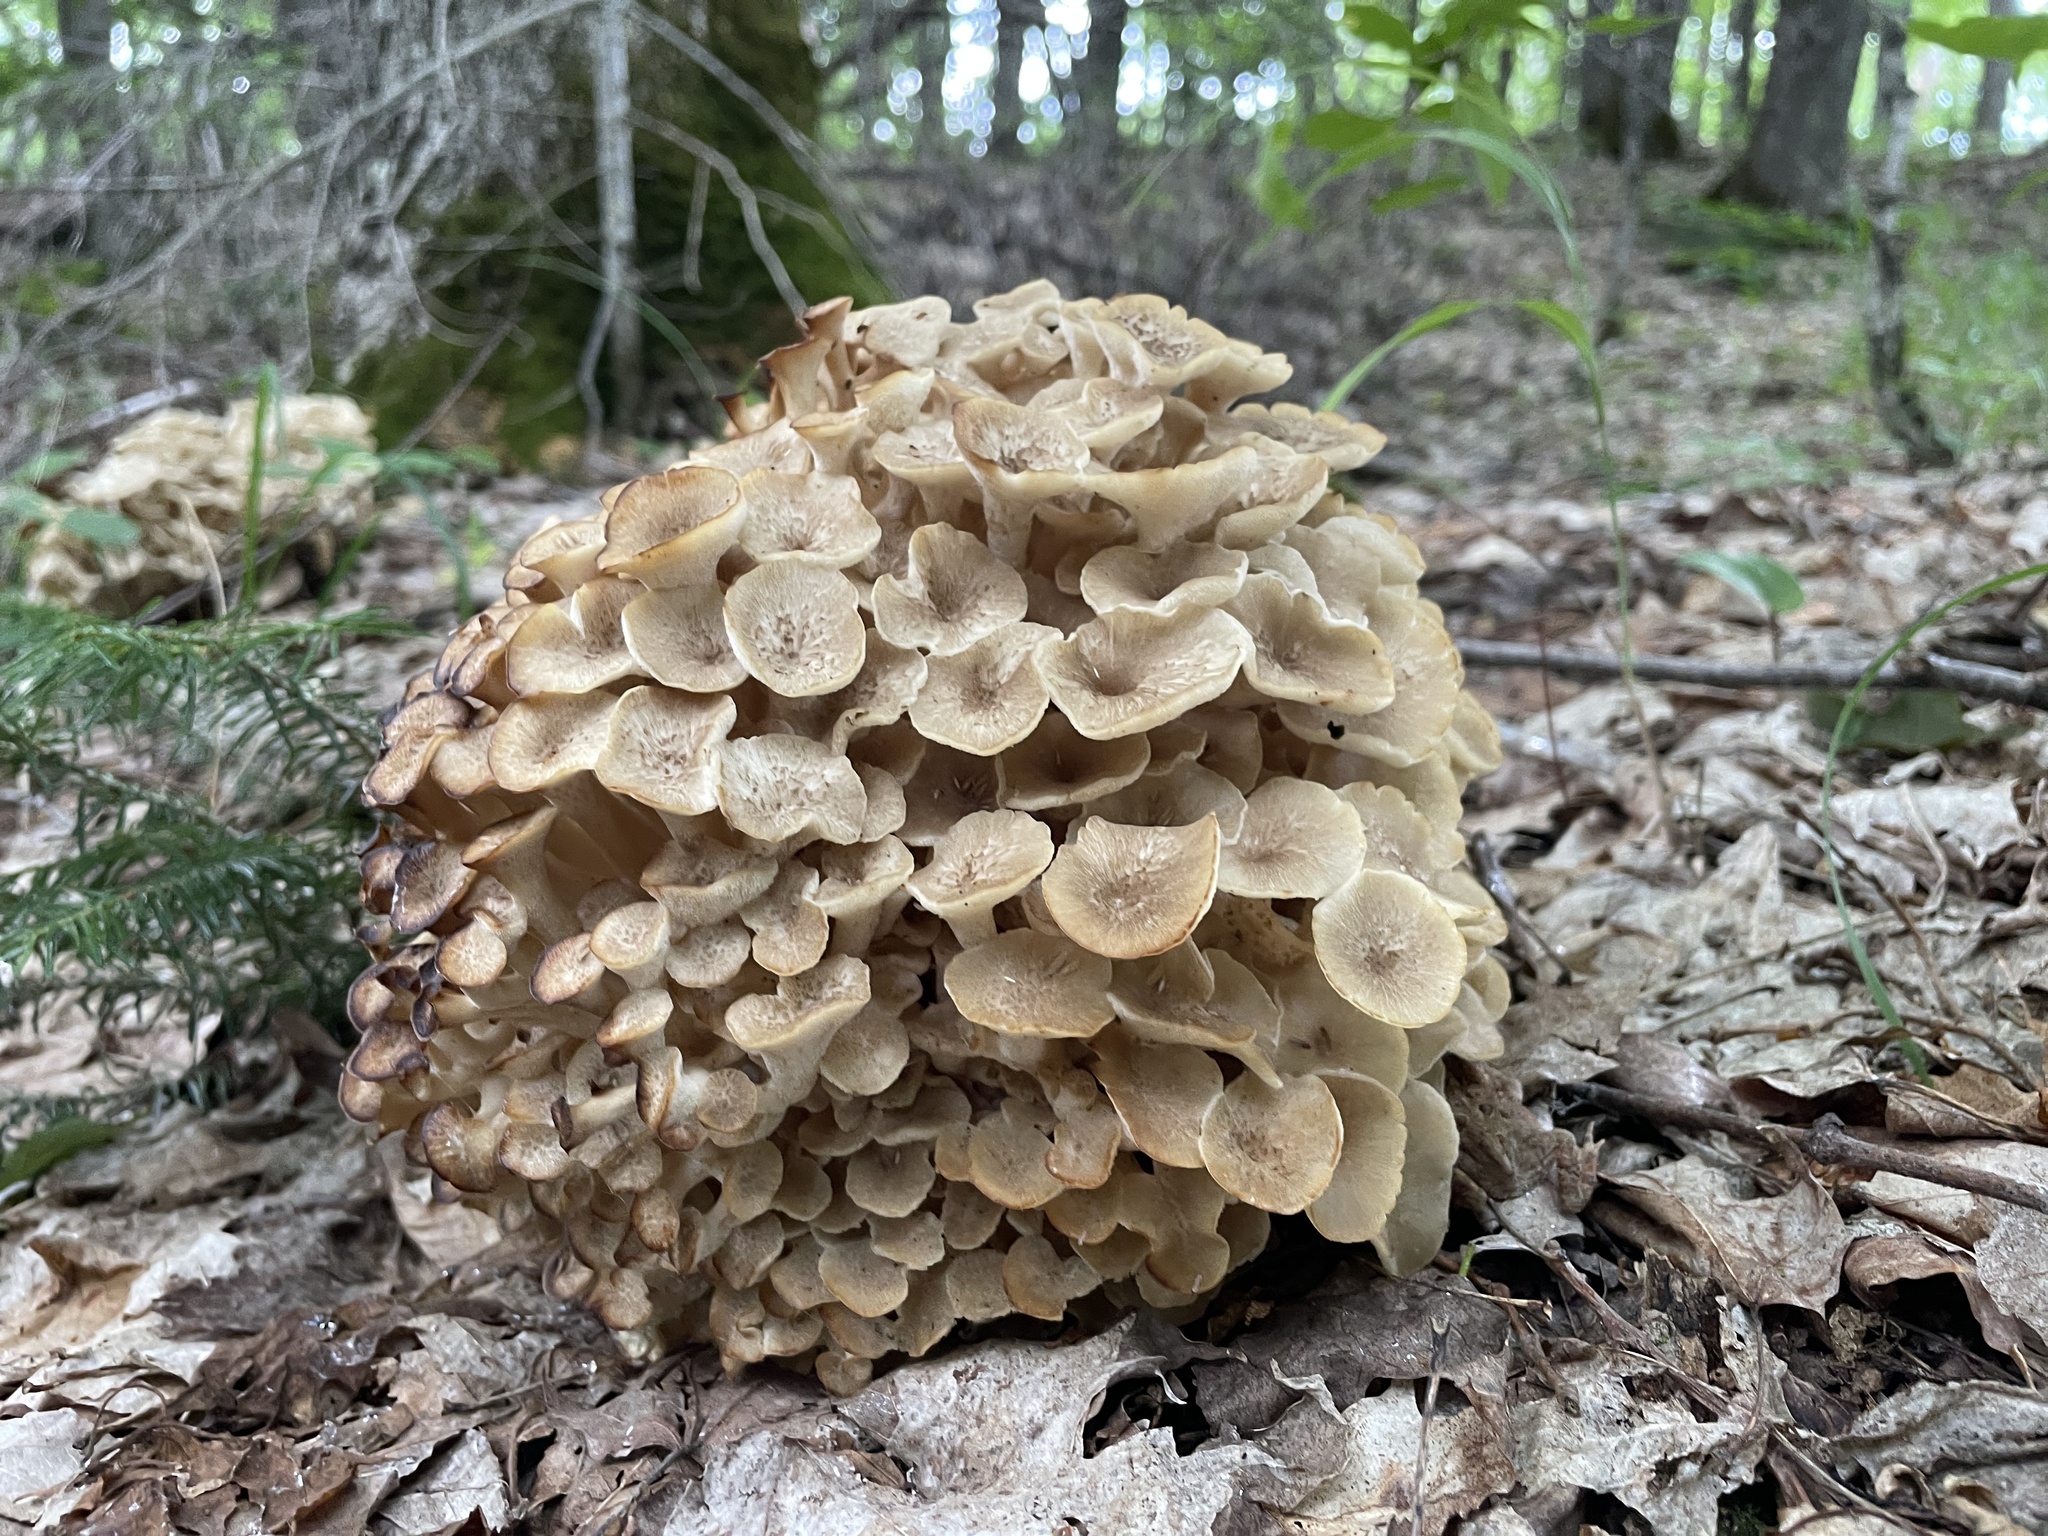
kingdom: Fungi
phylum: Basidiomycota
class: Agaricomycetes
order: Polyporales
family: Polyporaceae
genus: Polyporus
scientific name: Polyporus umbellatus
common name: Umbrella polypore
